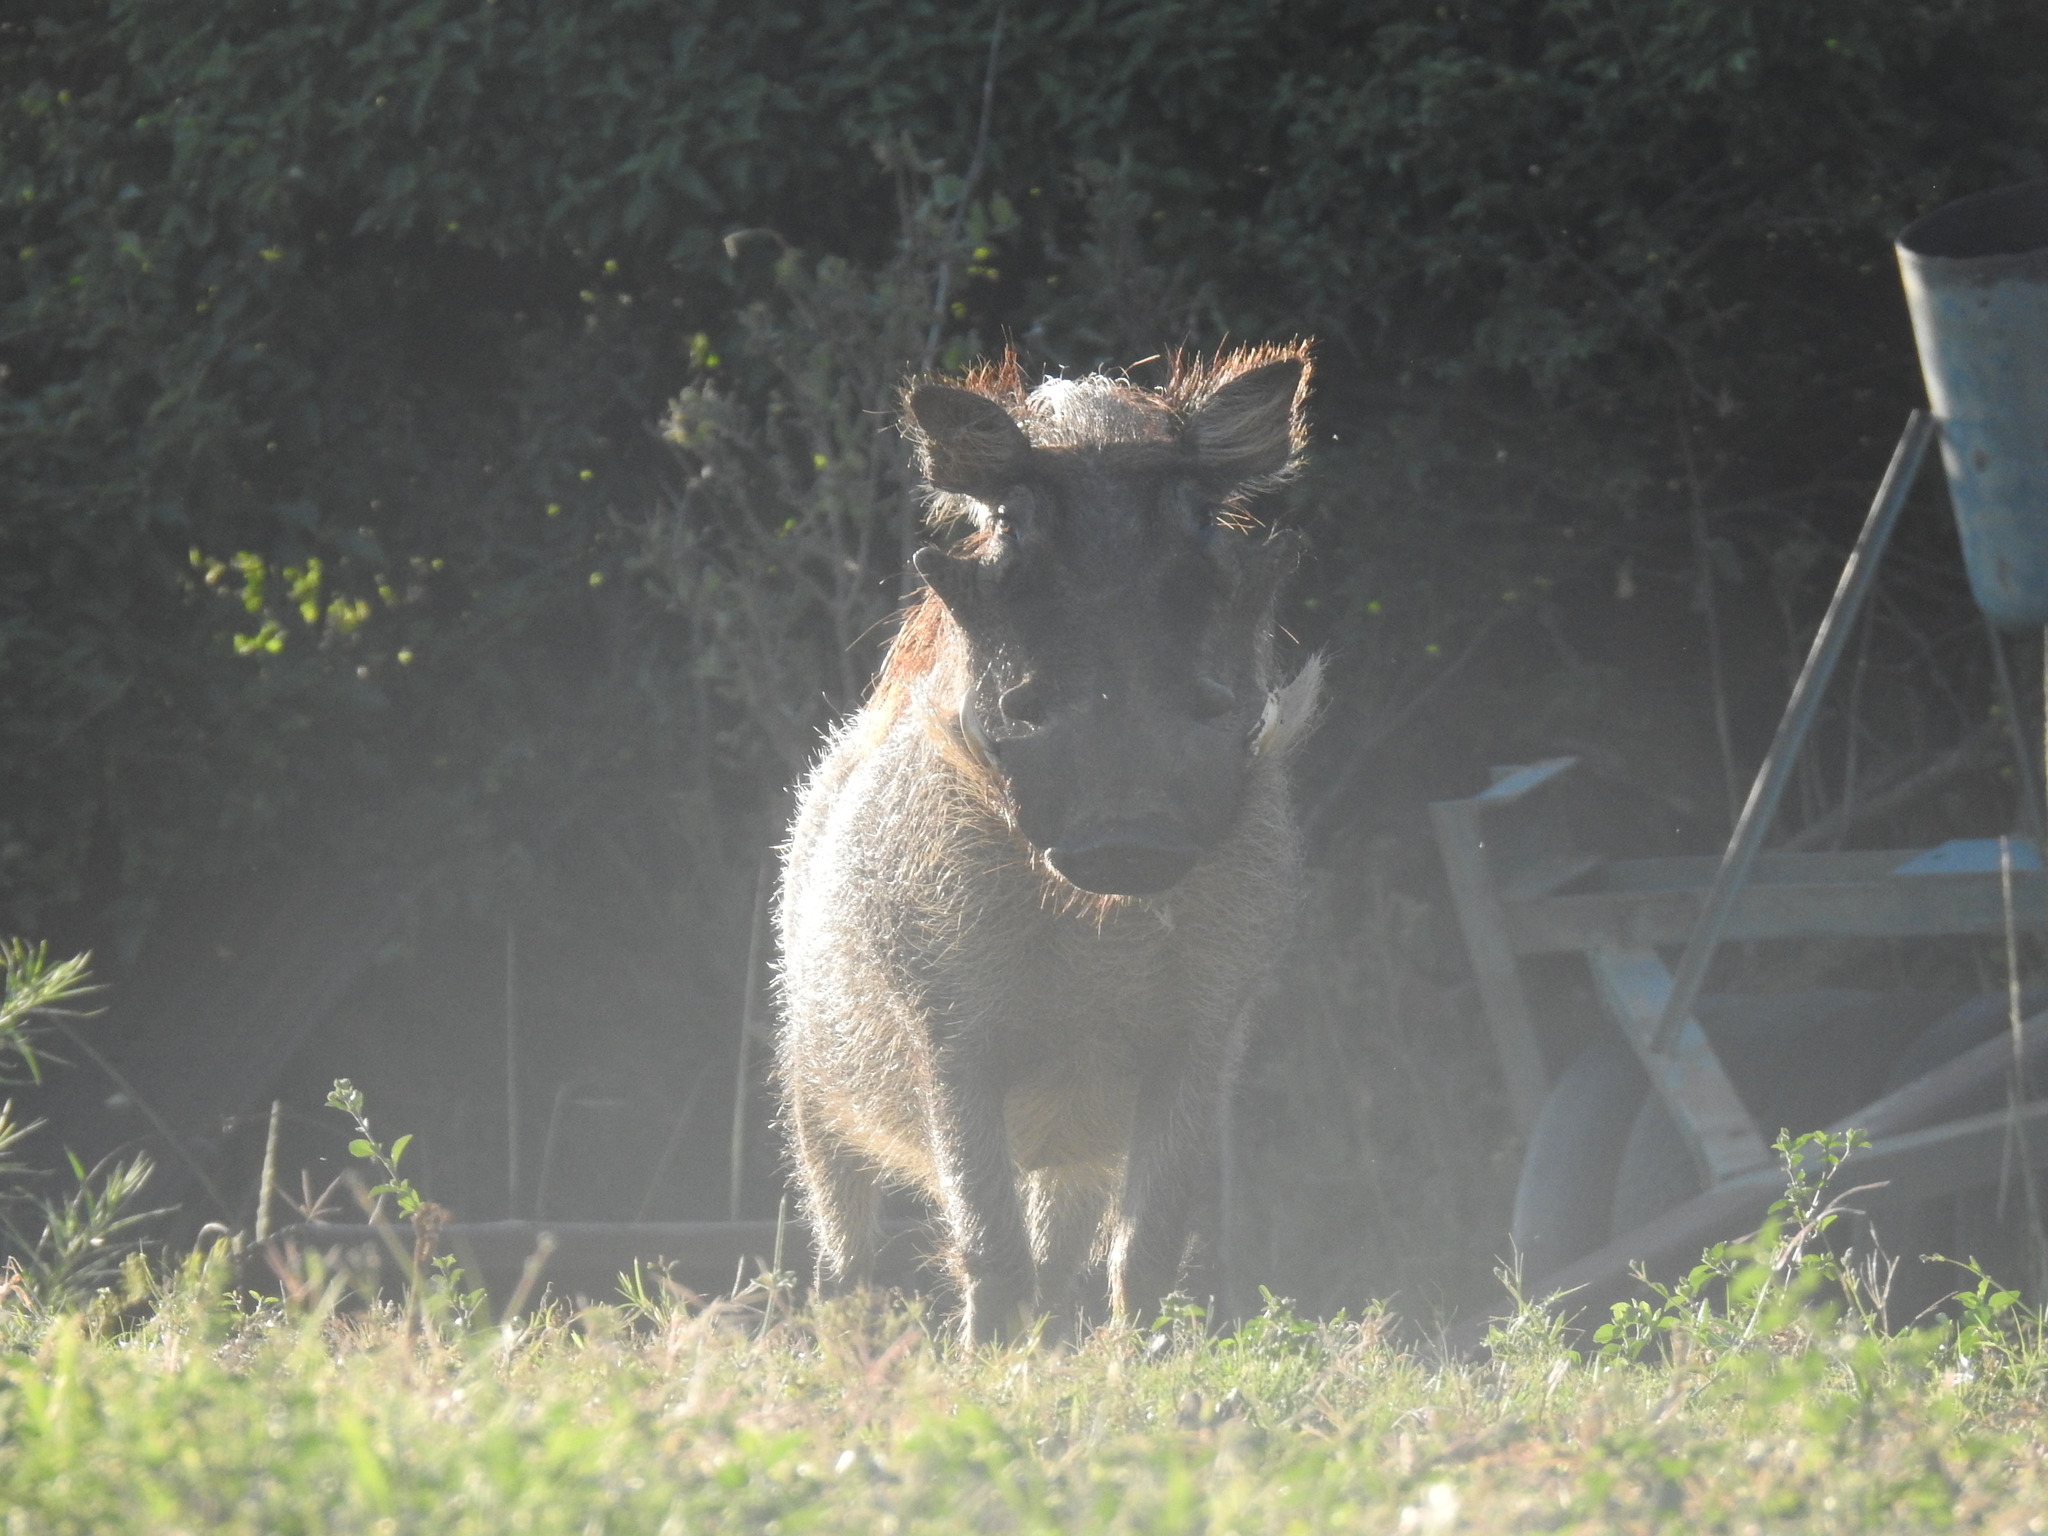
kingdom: Animalia
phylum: Chordata
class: Mammalia
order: Artiodactyla
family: Suidae
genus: Phacochoerus
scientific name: Phacochoerus africanus
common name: Common warthog
